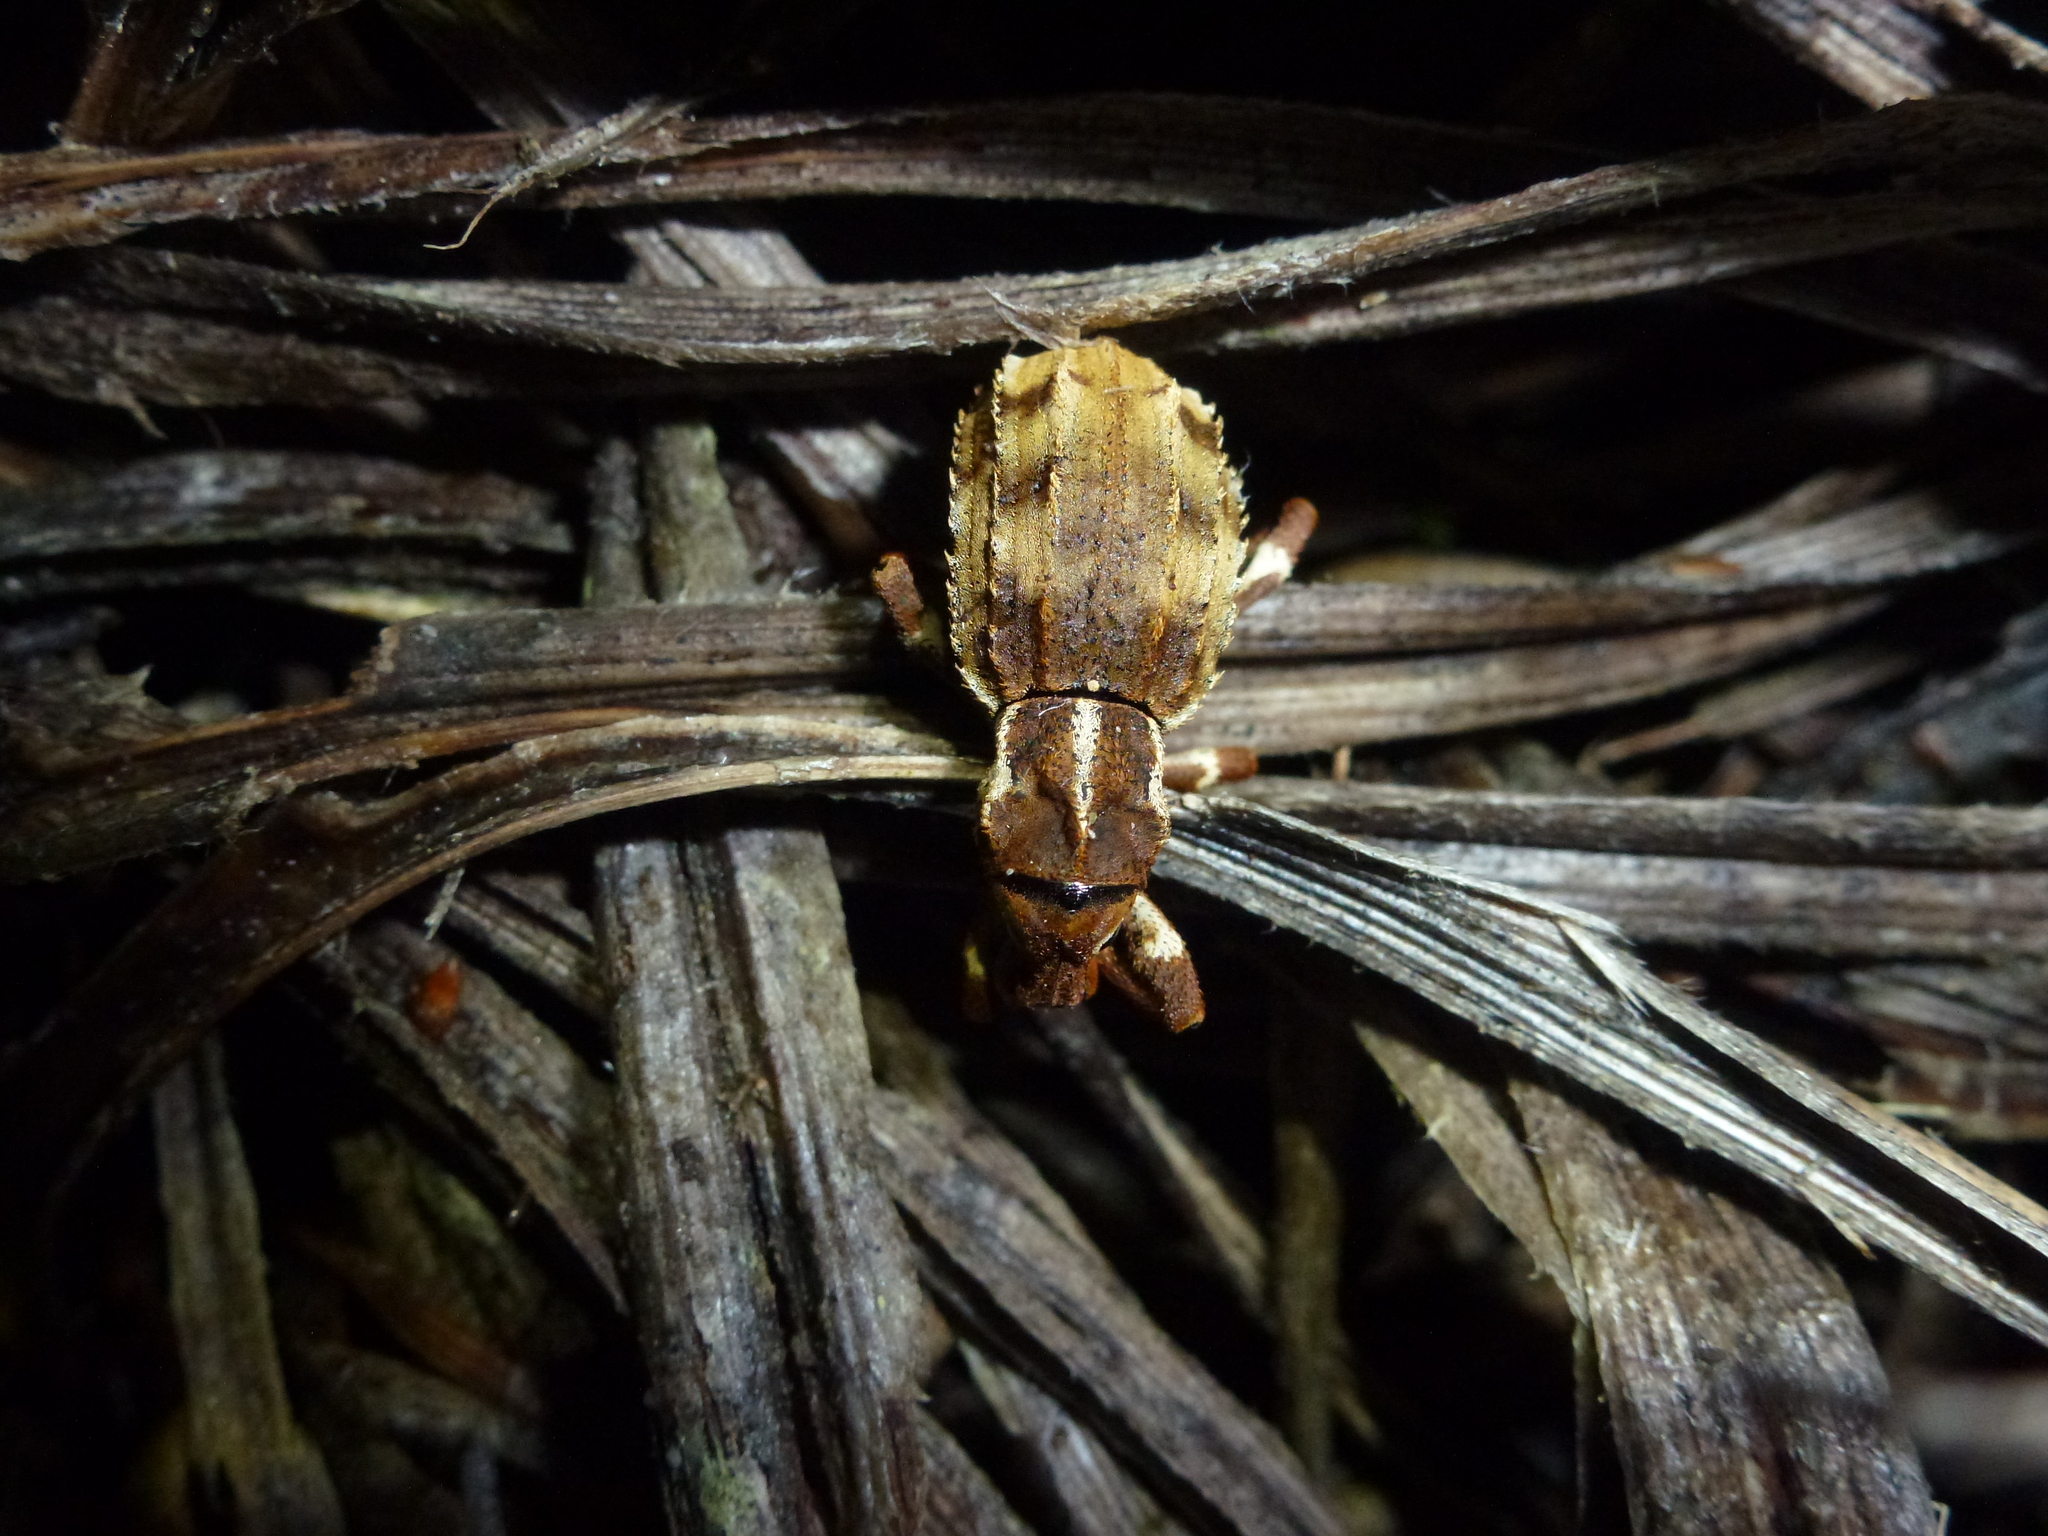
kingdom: Animalia
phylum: Arthropoda
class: Insecta
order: Coleoptera
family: Curculionidae
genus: Anagotus
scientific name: Anagotus
